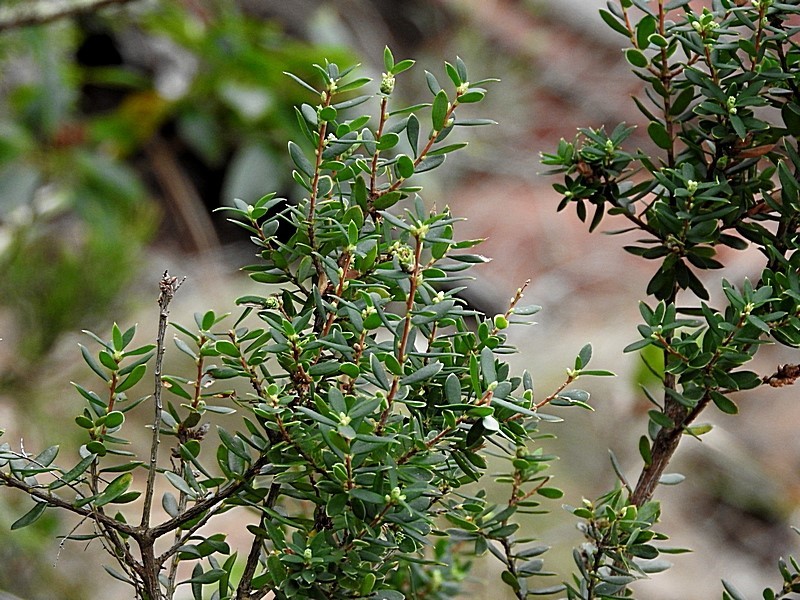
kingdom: Plantae
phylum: Tracheophyta
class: Magnoliopsida
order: Ericales
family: Ericaceae
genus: Monotoca
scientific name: Monotoca elliptica
